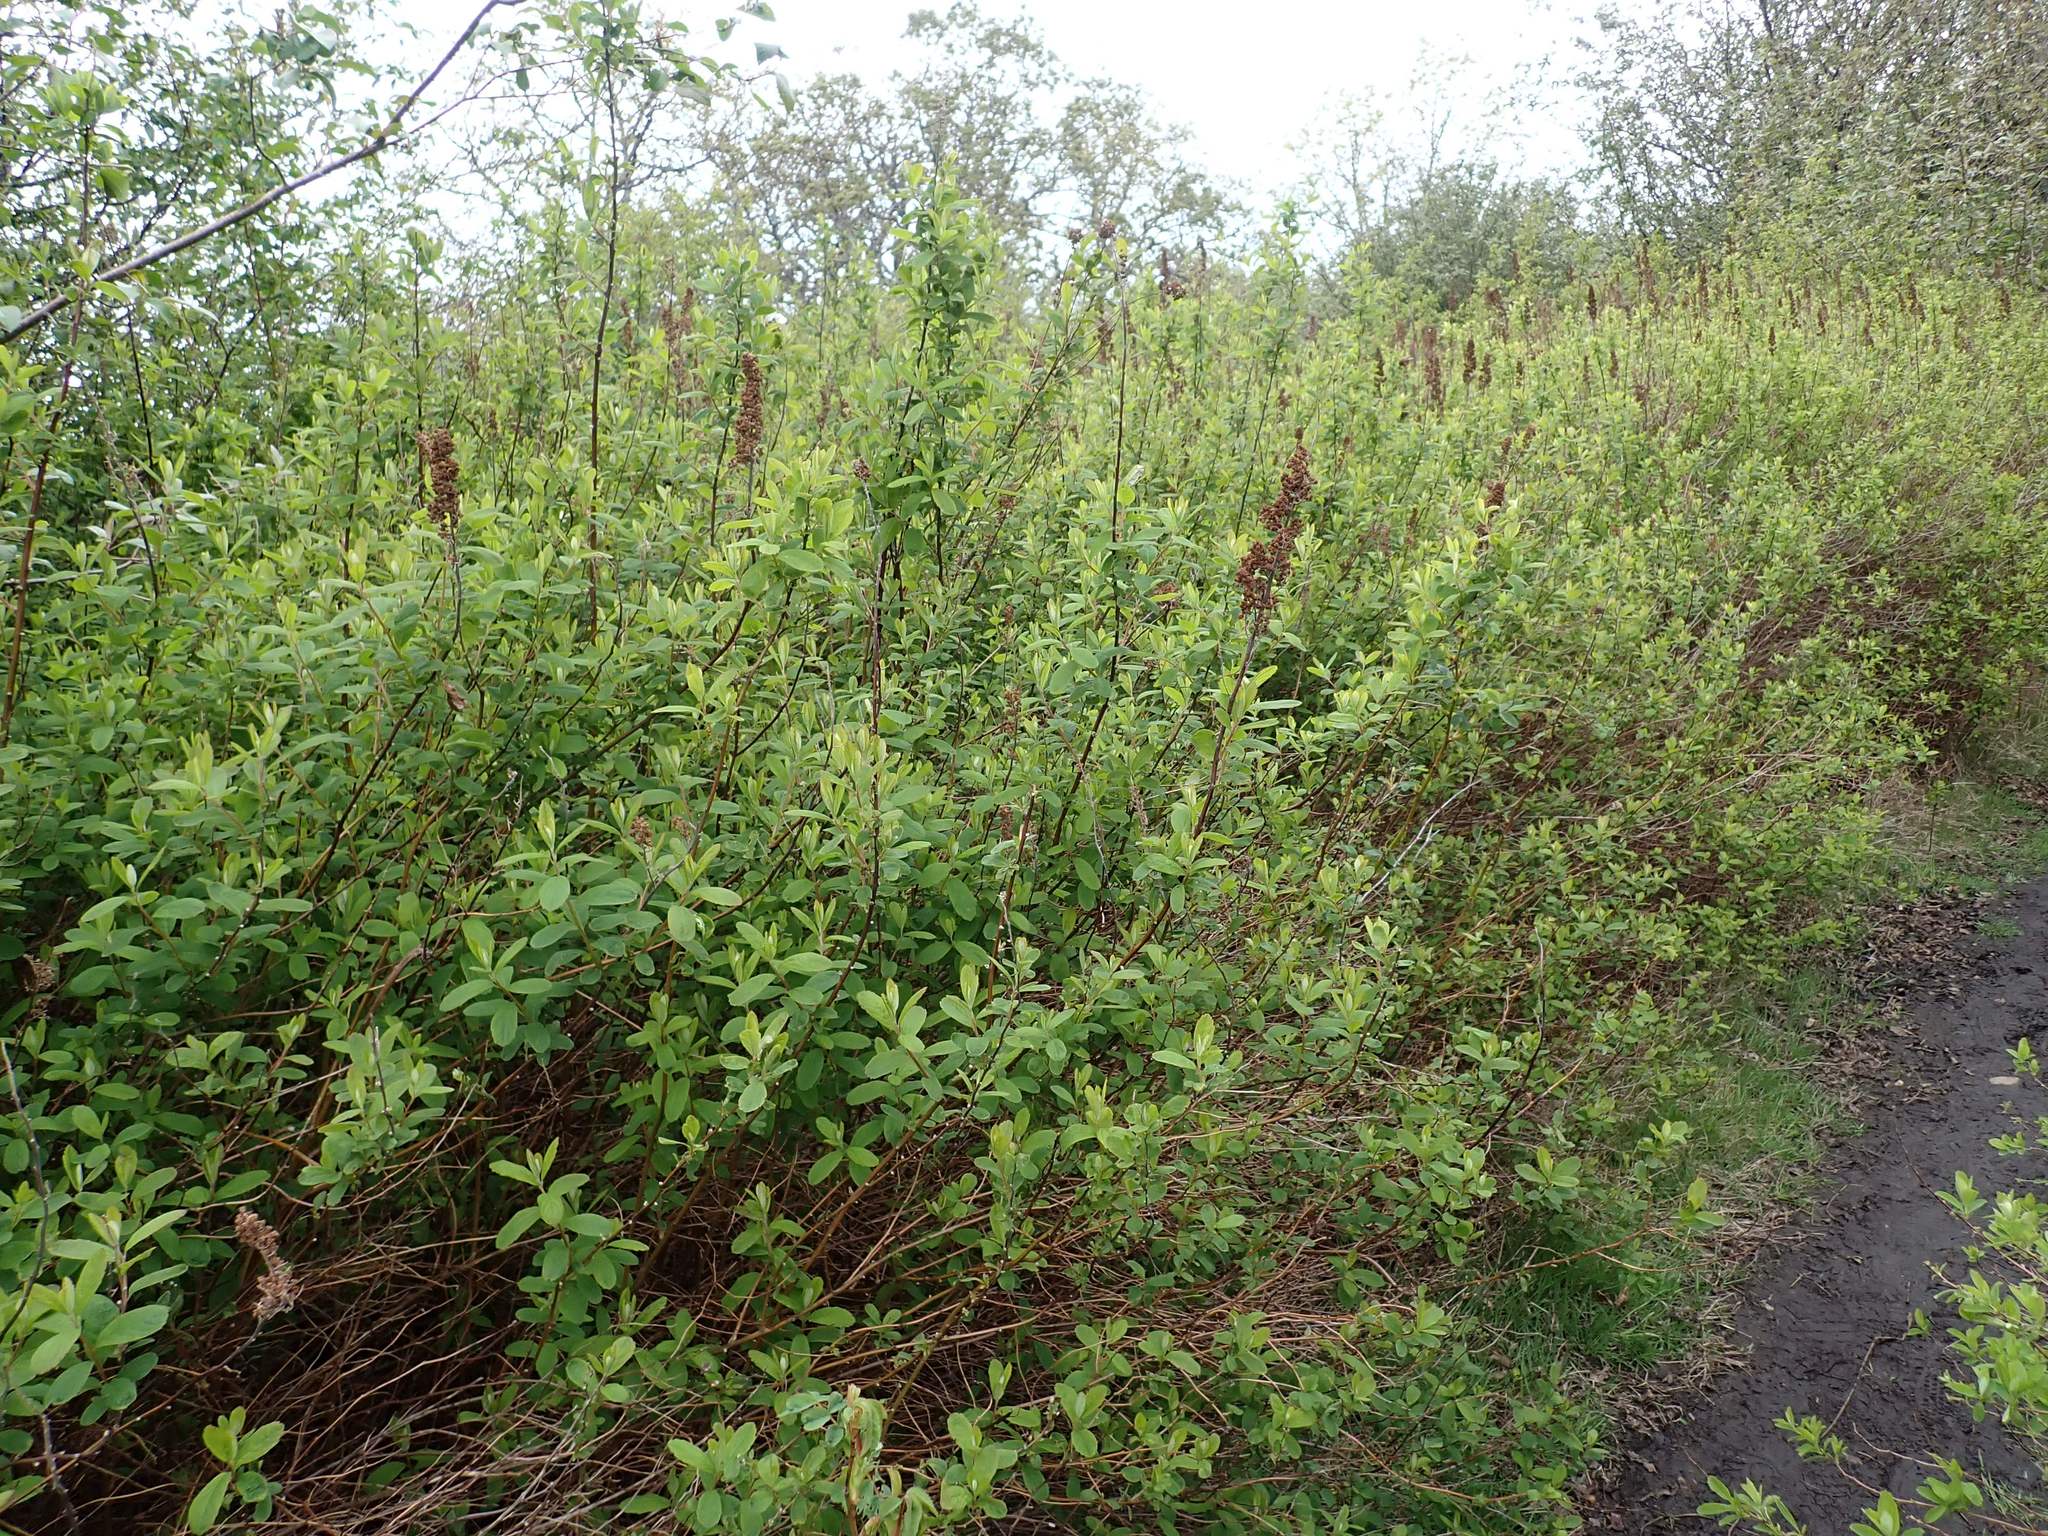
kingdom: Plantae
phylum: Tracheophyta
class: Magnoliopsida
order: Rosales
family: Rosaceae
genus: Spiraea
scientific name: Spiraea douglasii
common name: Steeplebush
